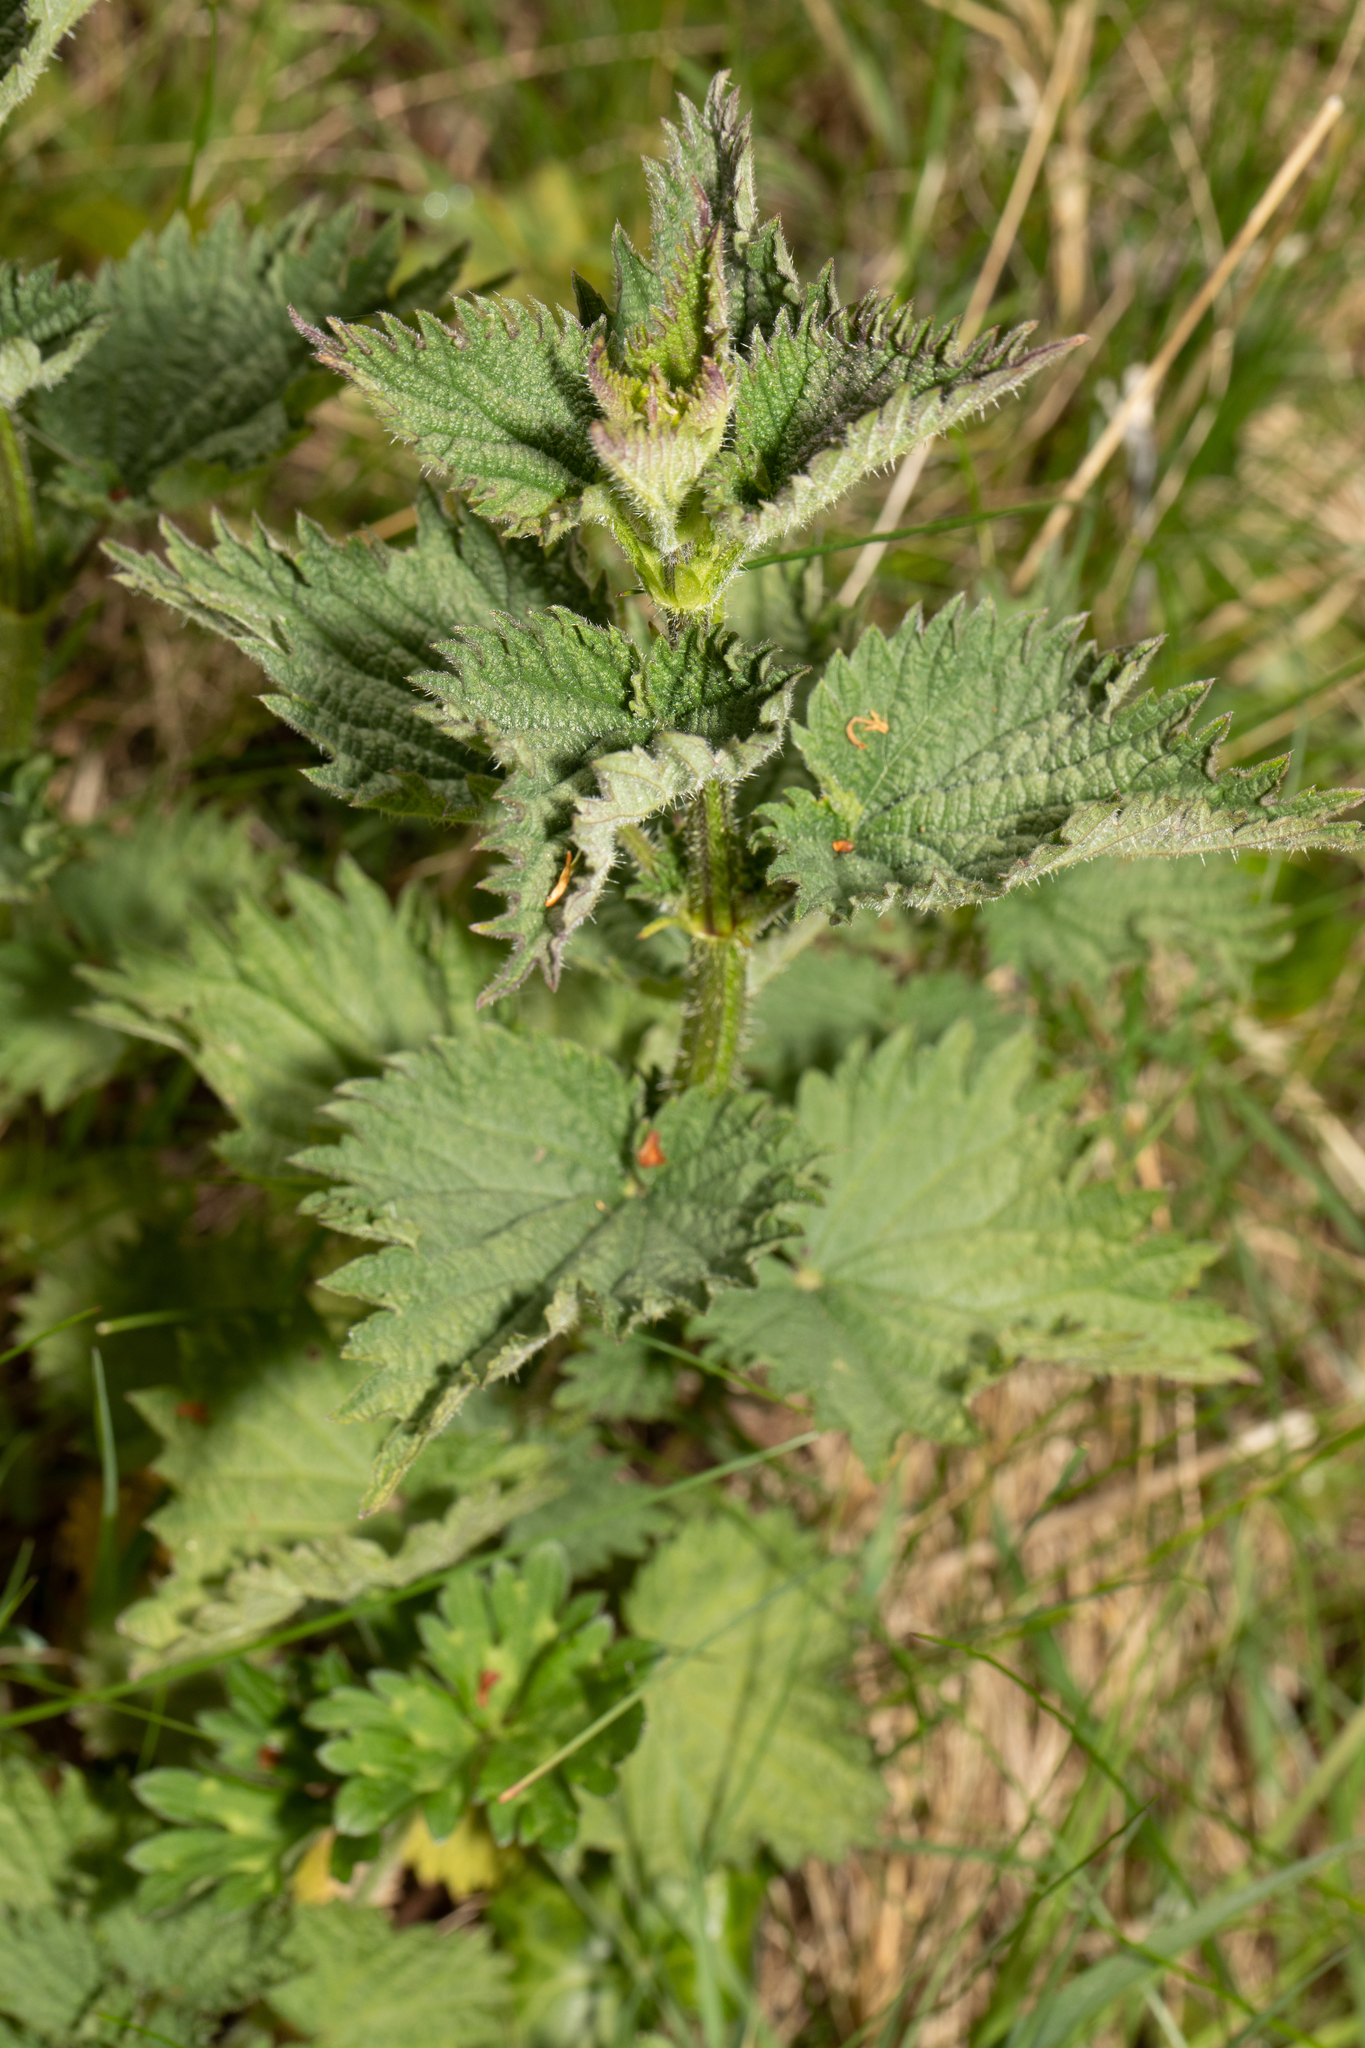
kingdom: Plantae
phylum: Tracheophyta
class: Magnoliopsida
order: Rosales
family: Urticaceae
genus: Urtica
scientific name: Urtica dioica
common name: Common nettle
